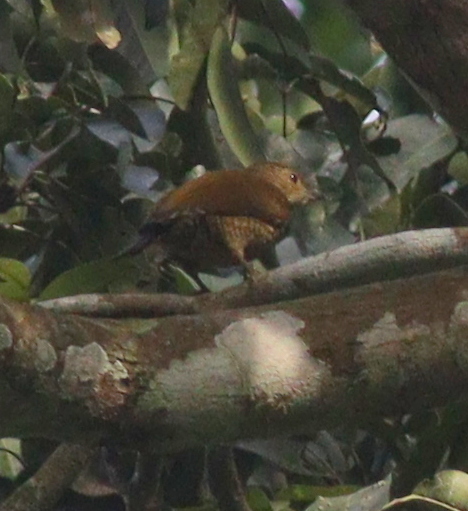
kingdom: Animalia
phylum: Chordata
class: Aves
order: Piciformes
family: Picidae
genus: Pardipicus
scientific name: Pardipicus nivosus
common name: Buff-spotted woodpecker
